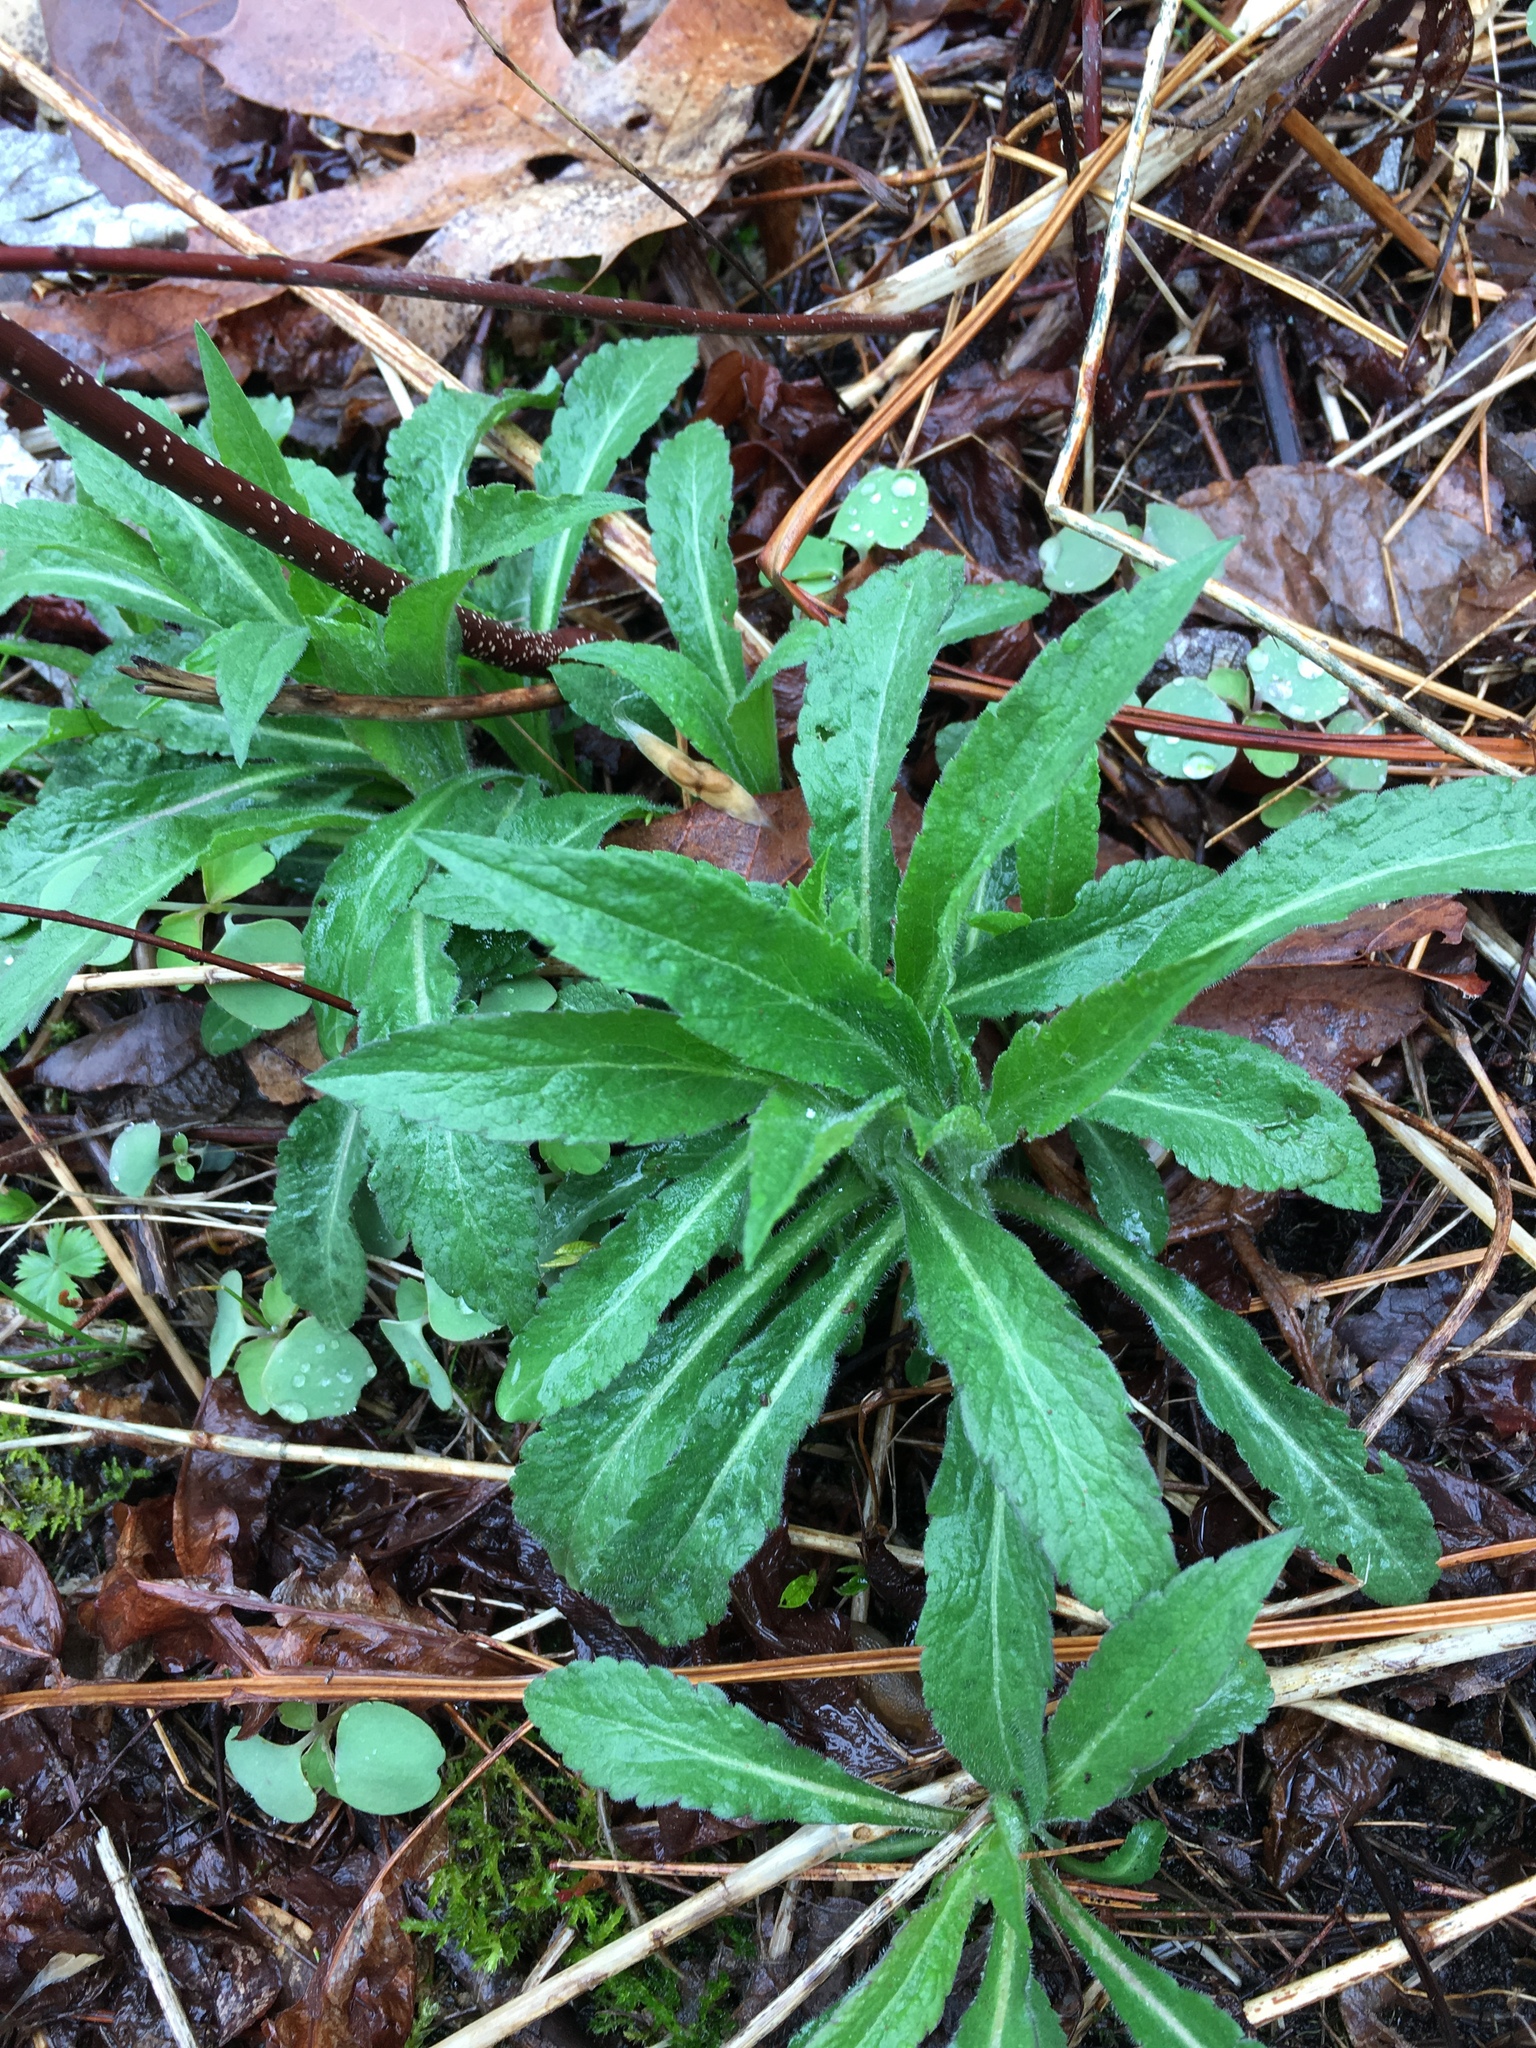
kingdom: Plantae
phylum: Tracheophyta
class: Magnoliopsida
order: Asterales
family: Asteraceae
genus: Erigeron
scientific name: Erigeron canadensis
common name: Canadian fleabane
